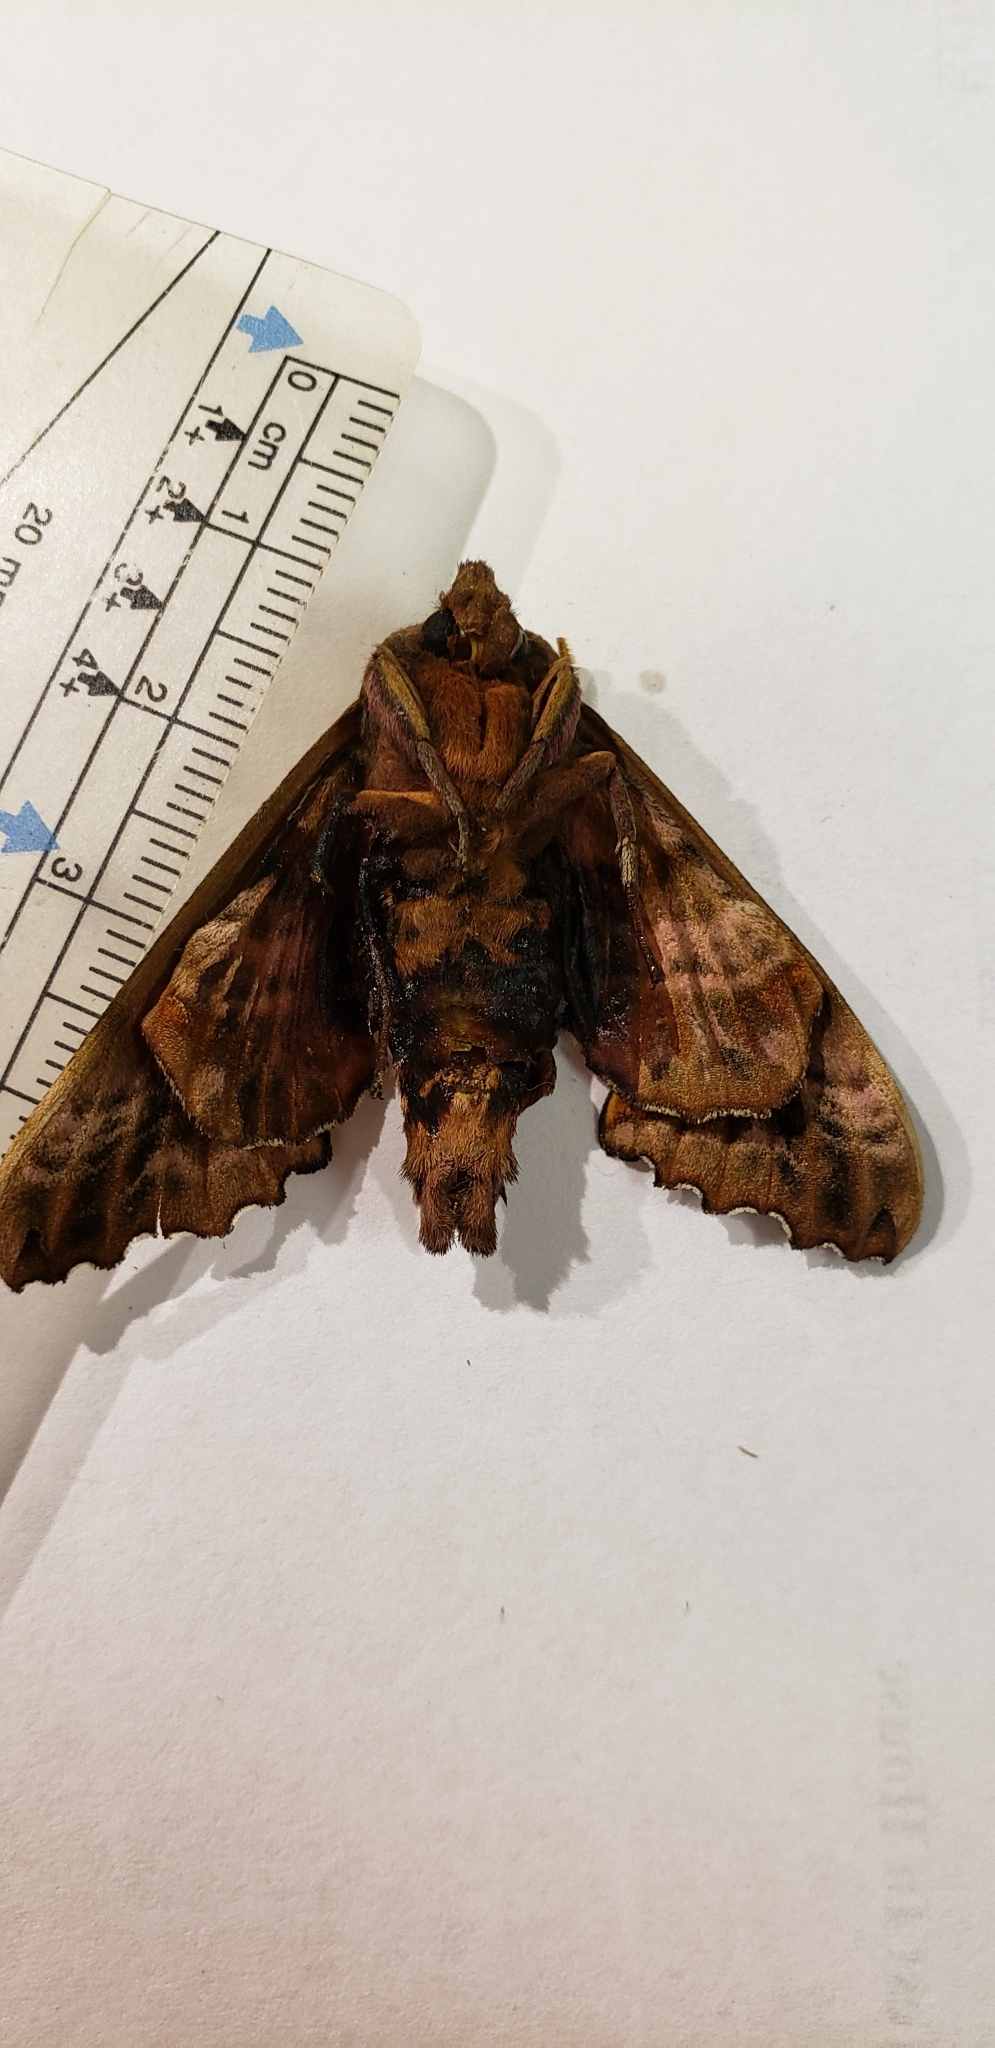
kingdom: Animalia
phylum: Arthropoda
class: Insecta
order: Lepidoptera
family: Sphingidae
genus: Paonias
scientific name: Paonias excaecata
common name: Blind-eyed sphinx
